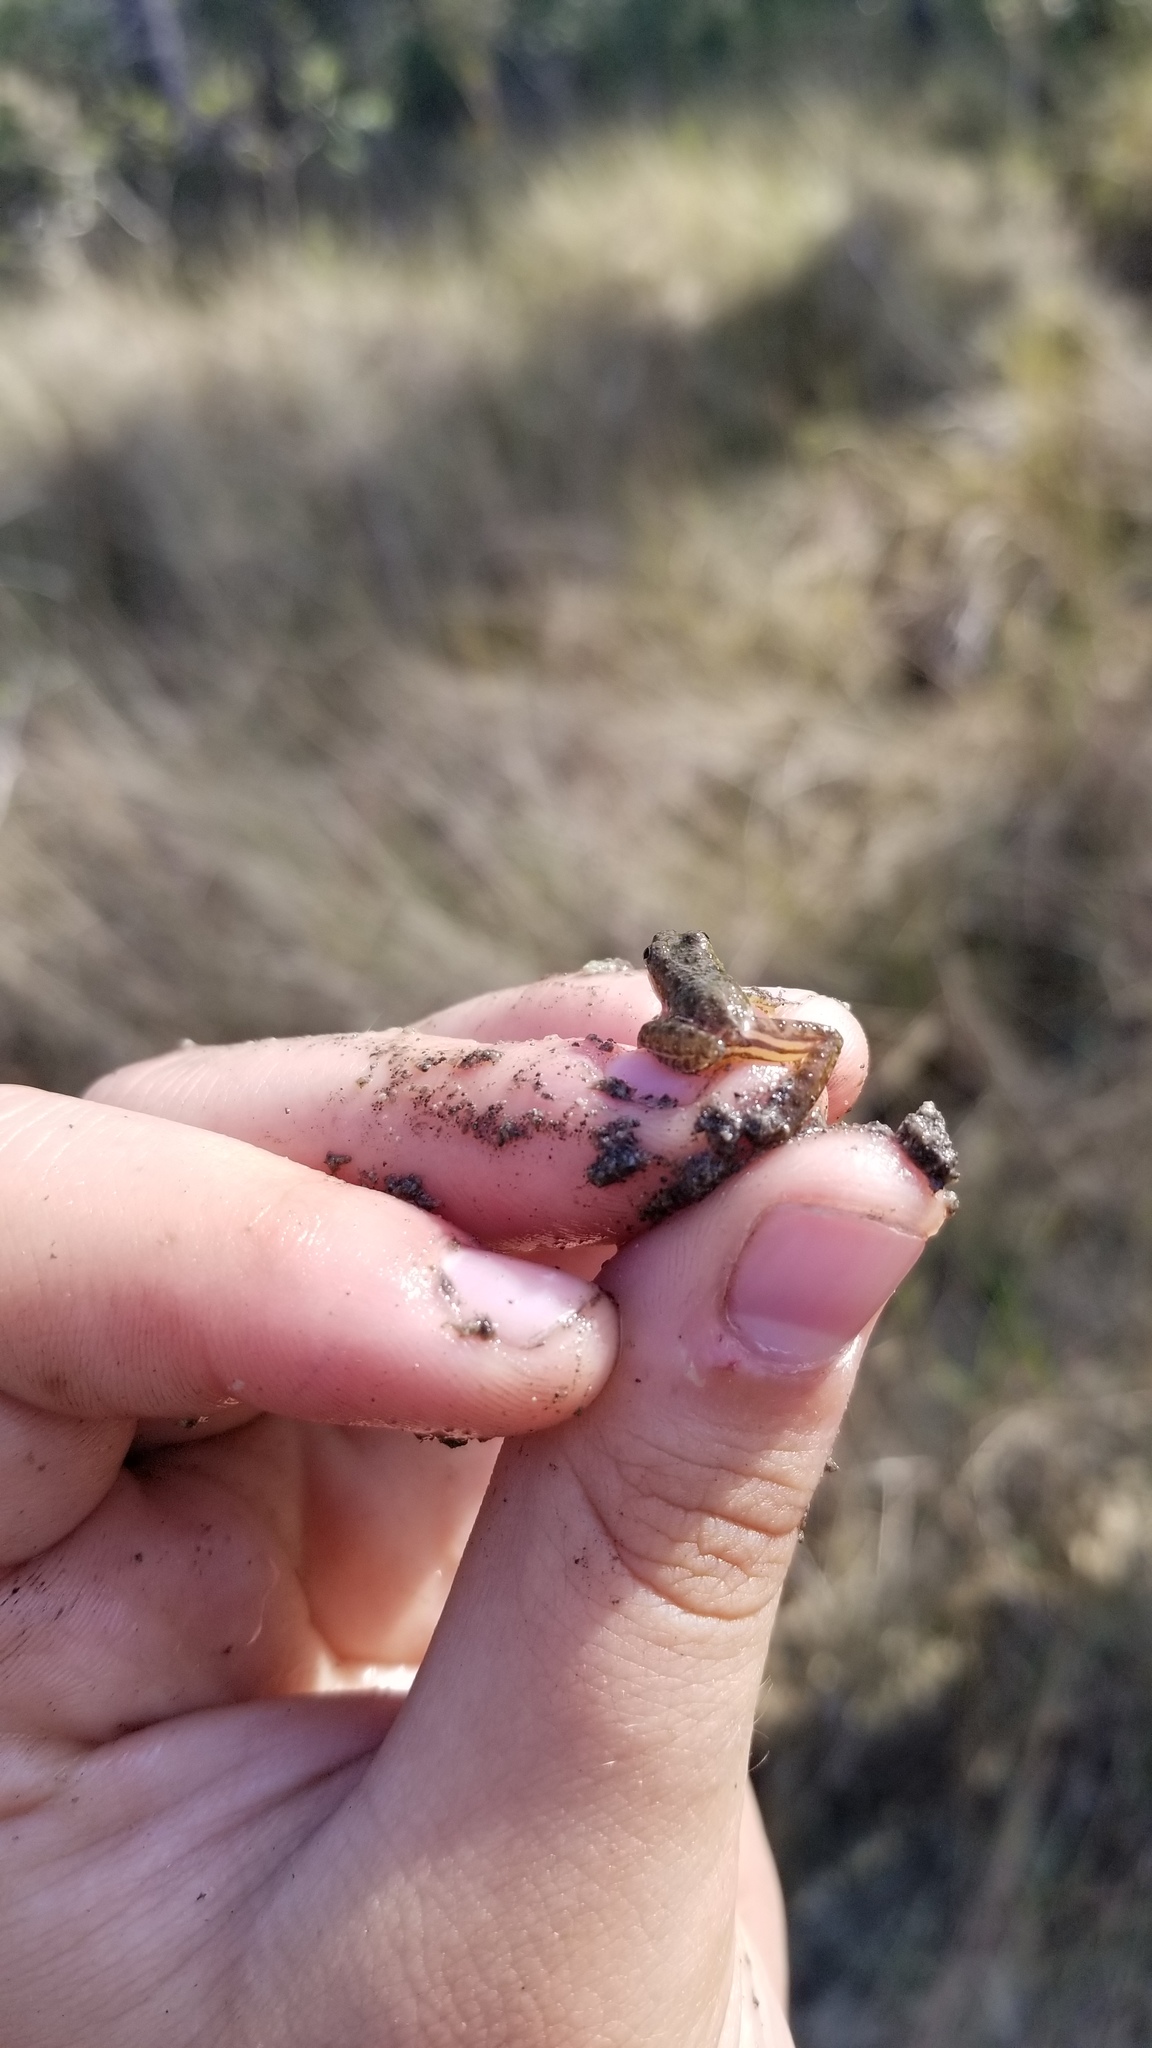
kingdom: Animalia
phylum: Chordata
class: Amphibia
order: Anura
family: Hylidae
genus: Acris
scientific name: Acris gryllus
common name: Southern cricket frog
